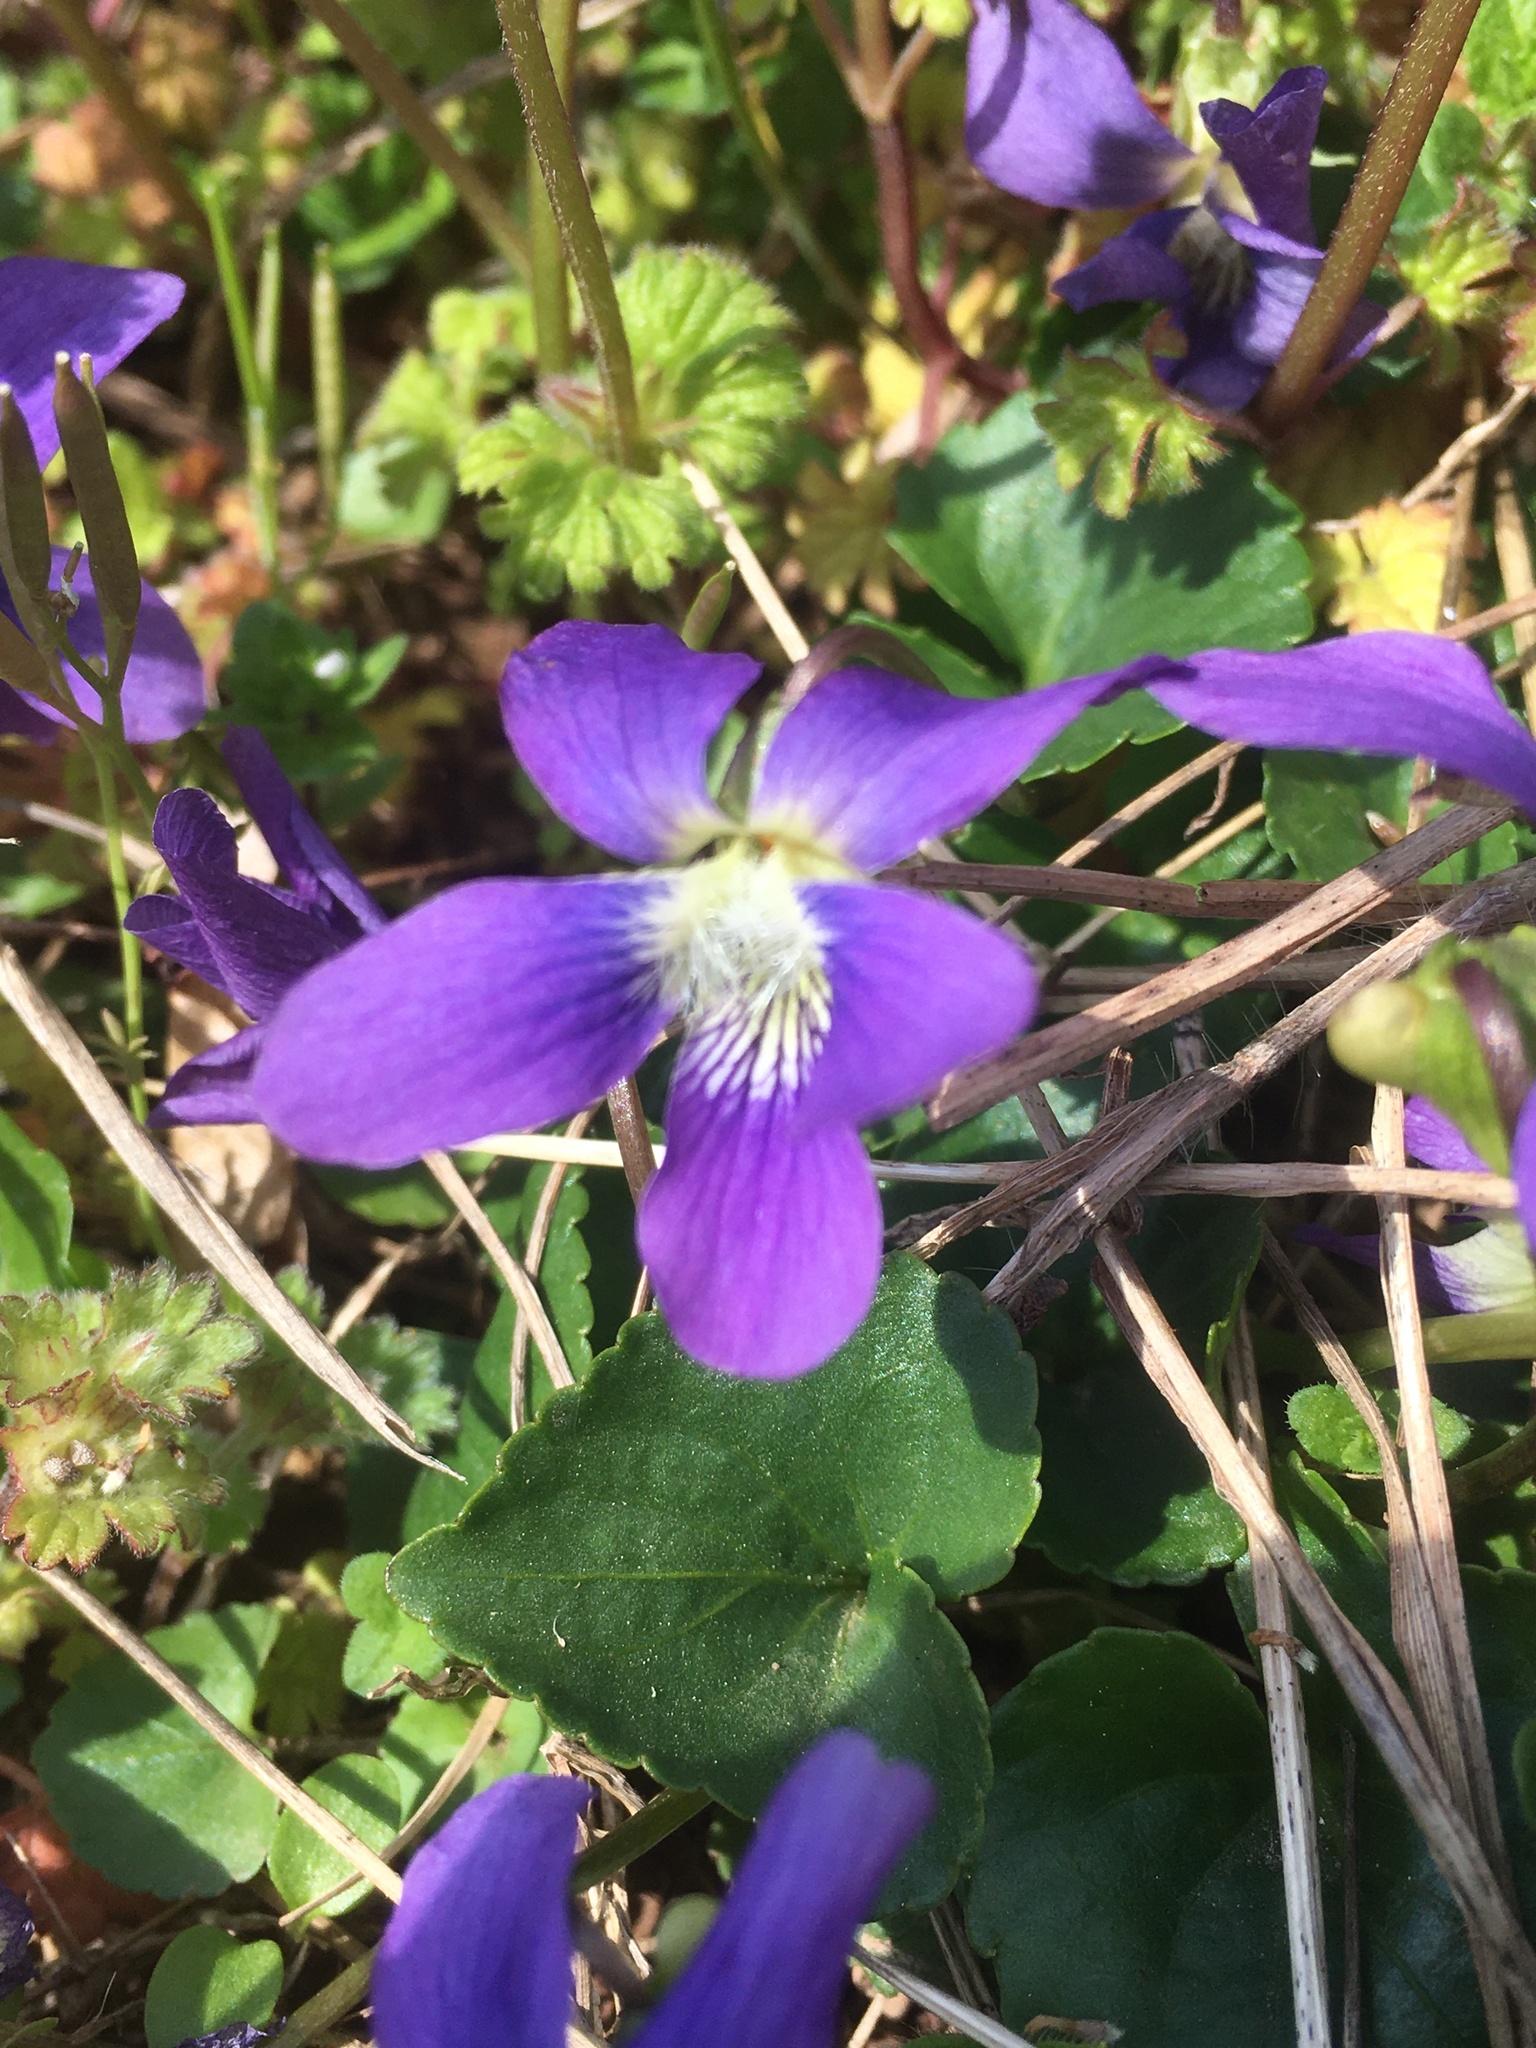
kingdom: Plantae
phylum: Tracheophyta
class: Magnoliopsida
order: Malpighiales
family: Violaceae
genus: Viola
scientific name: Viola sororia
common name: Dooryard violet
